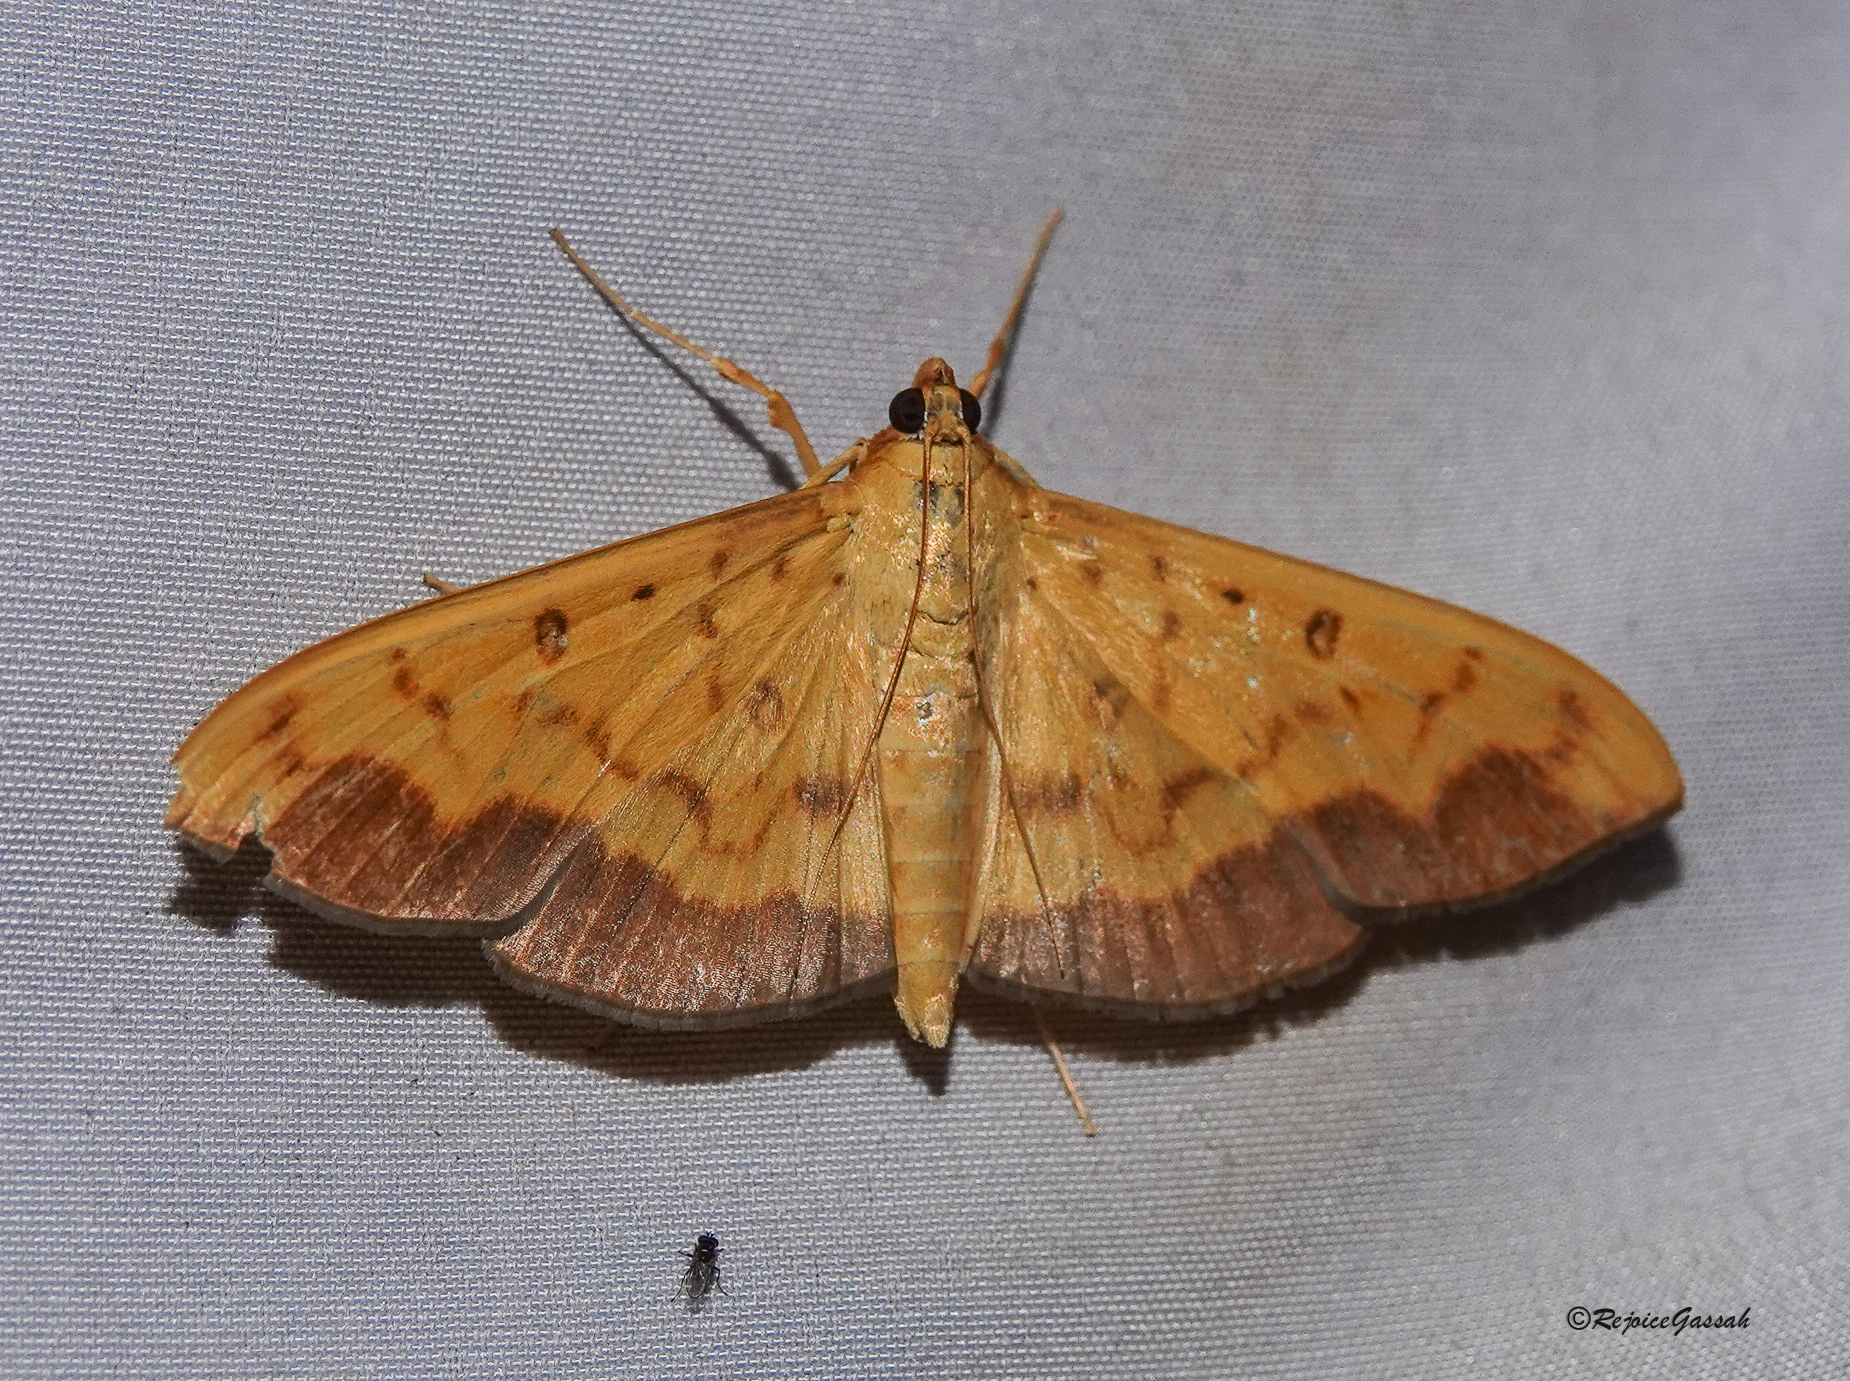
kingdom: Animalia
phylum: Arthropoda
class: Insecta
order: Lepidoptera
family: Crambidae
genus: Botyodes
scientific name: Botyodes asialis
